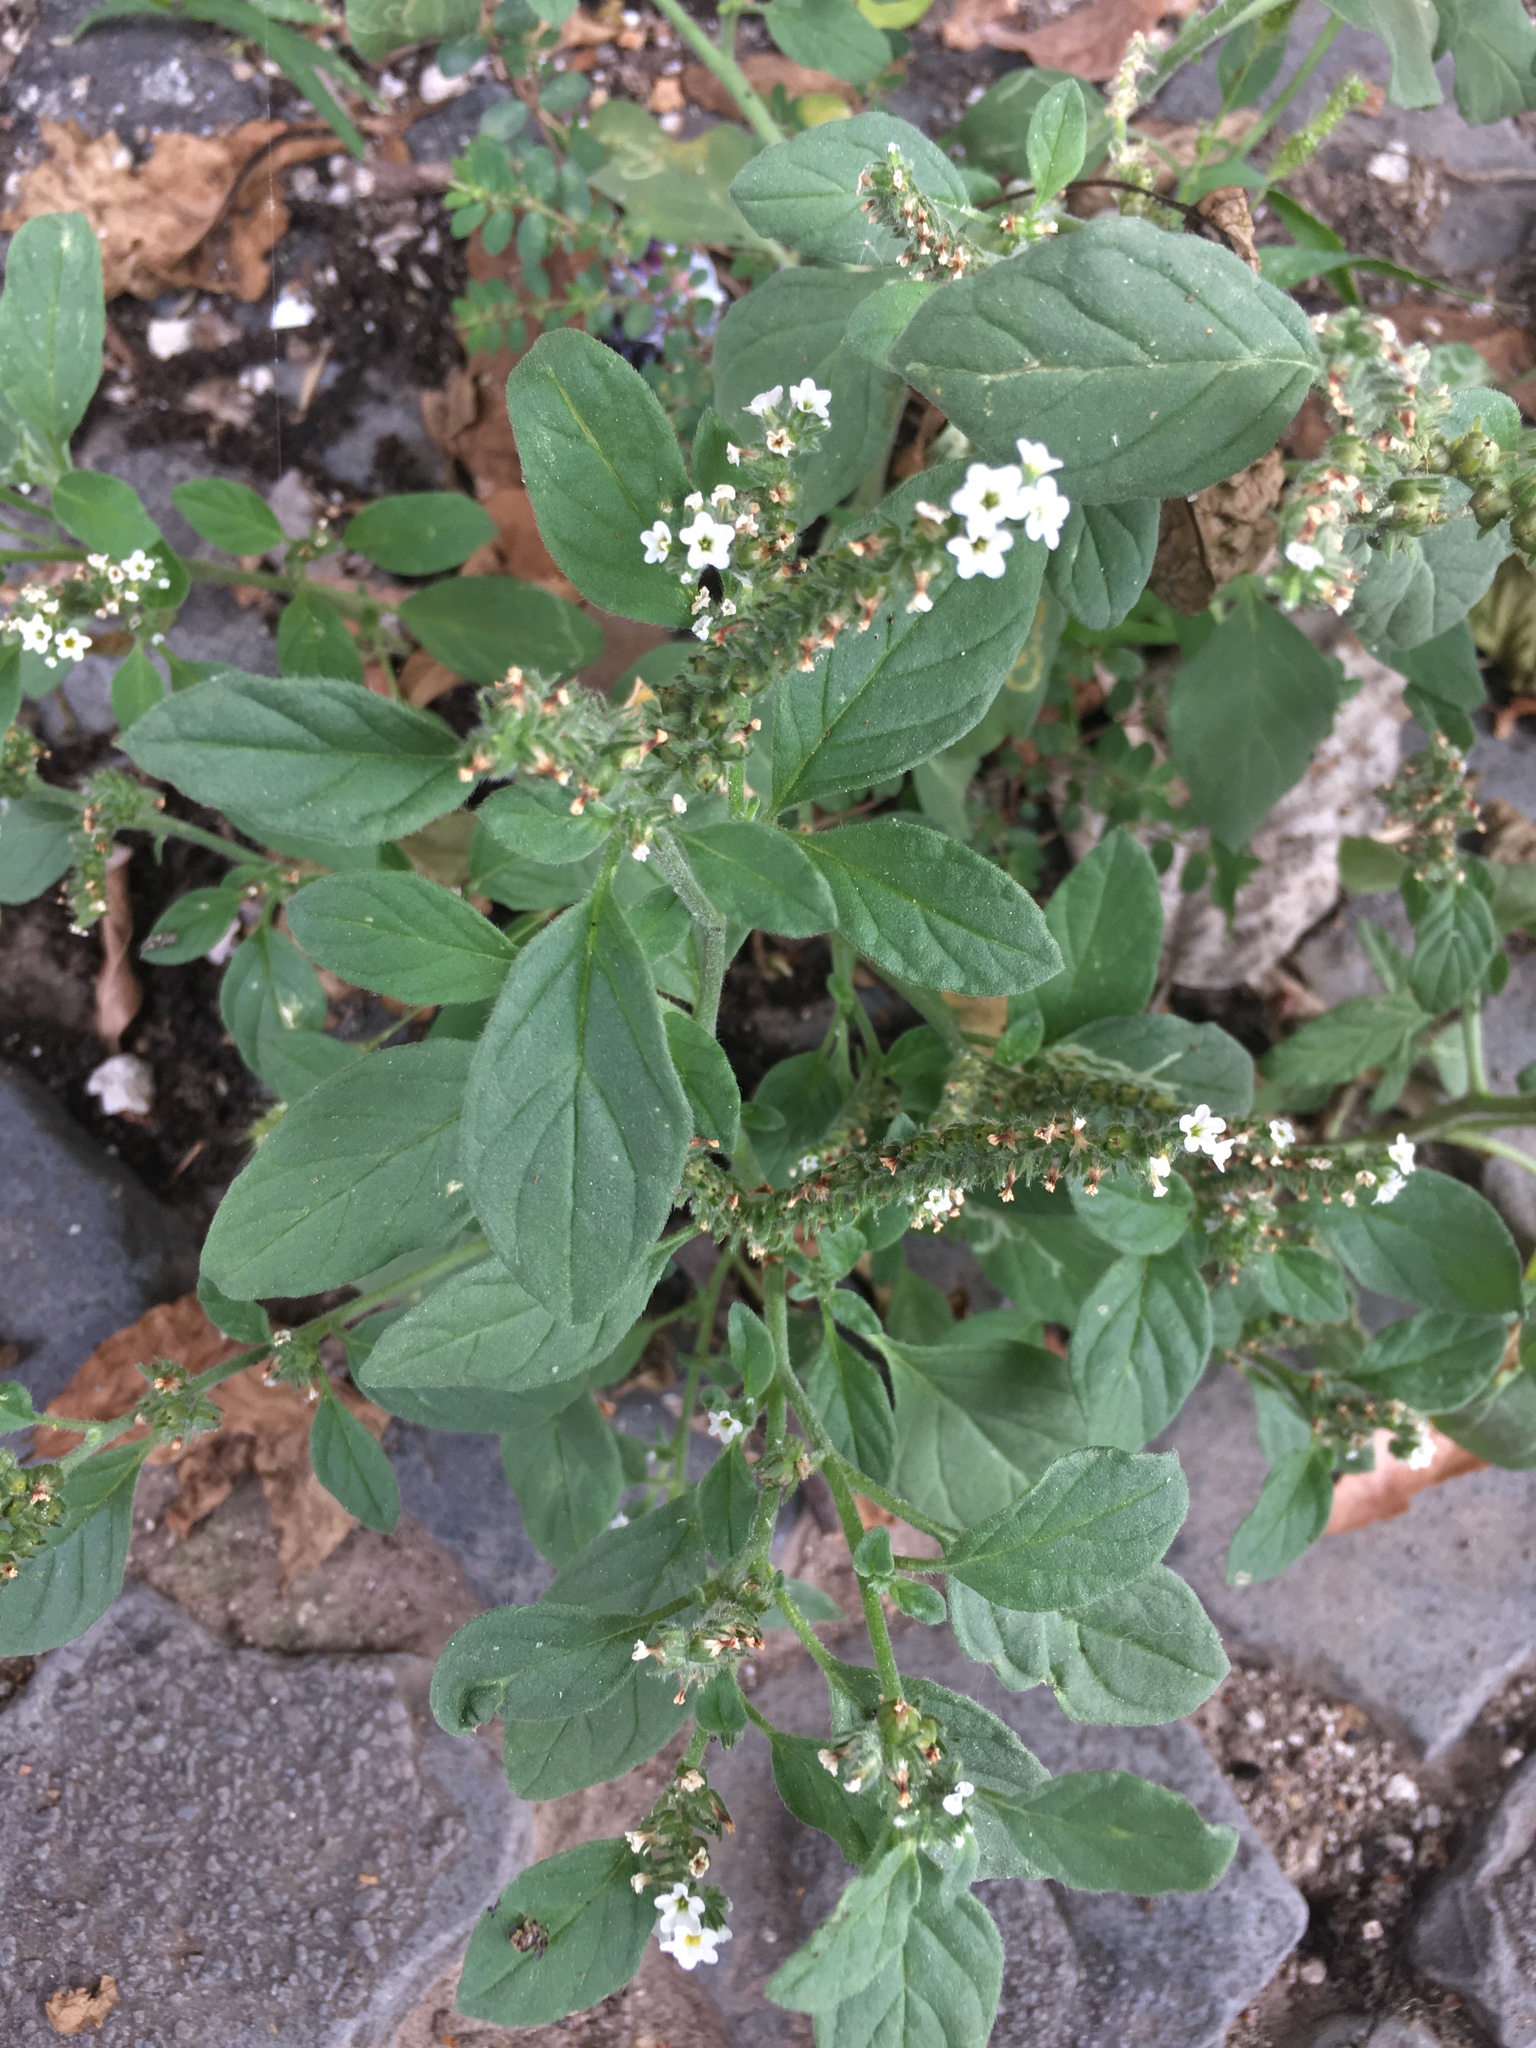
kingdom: Plantae
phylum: Tracheophyta
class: Magnoliopsida
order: Boraginales
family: Heliotropiaceae
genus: Heliotropium
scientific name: Heliotropium europaeum
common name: European heliotrope
